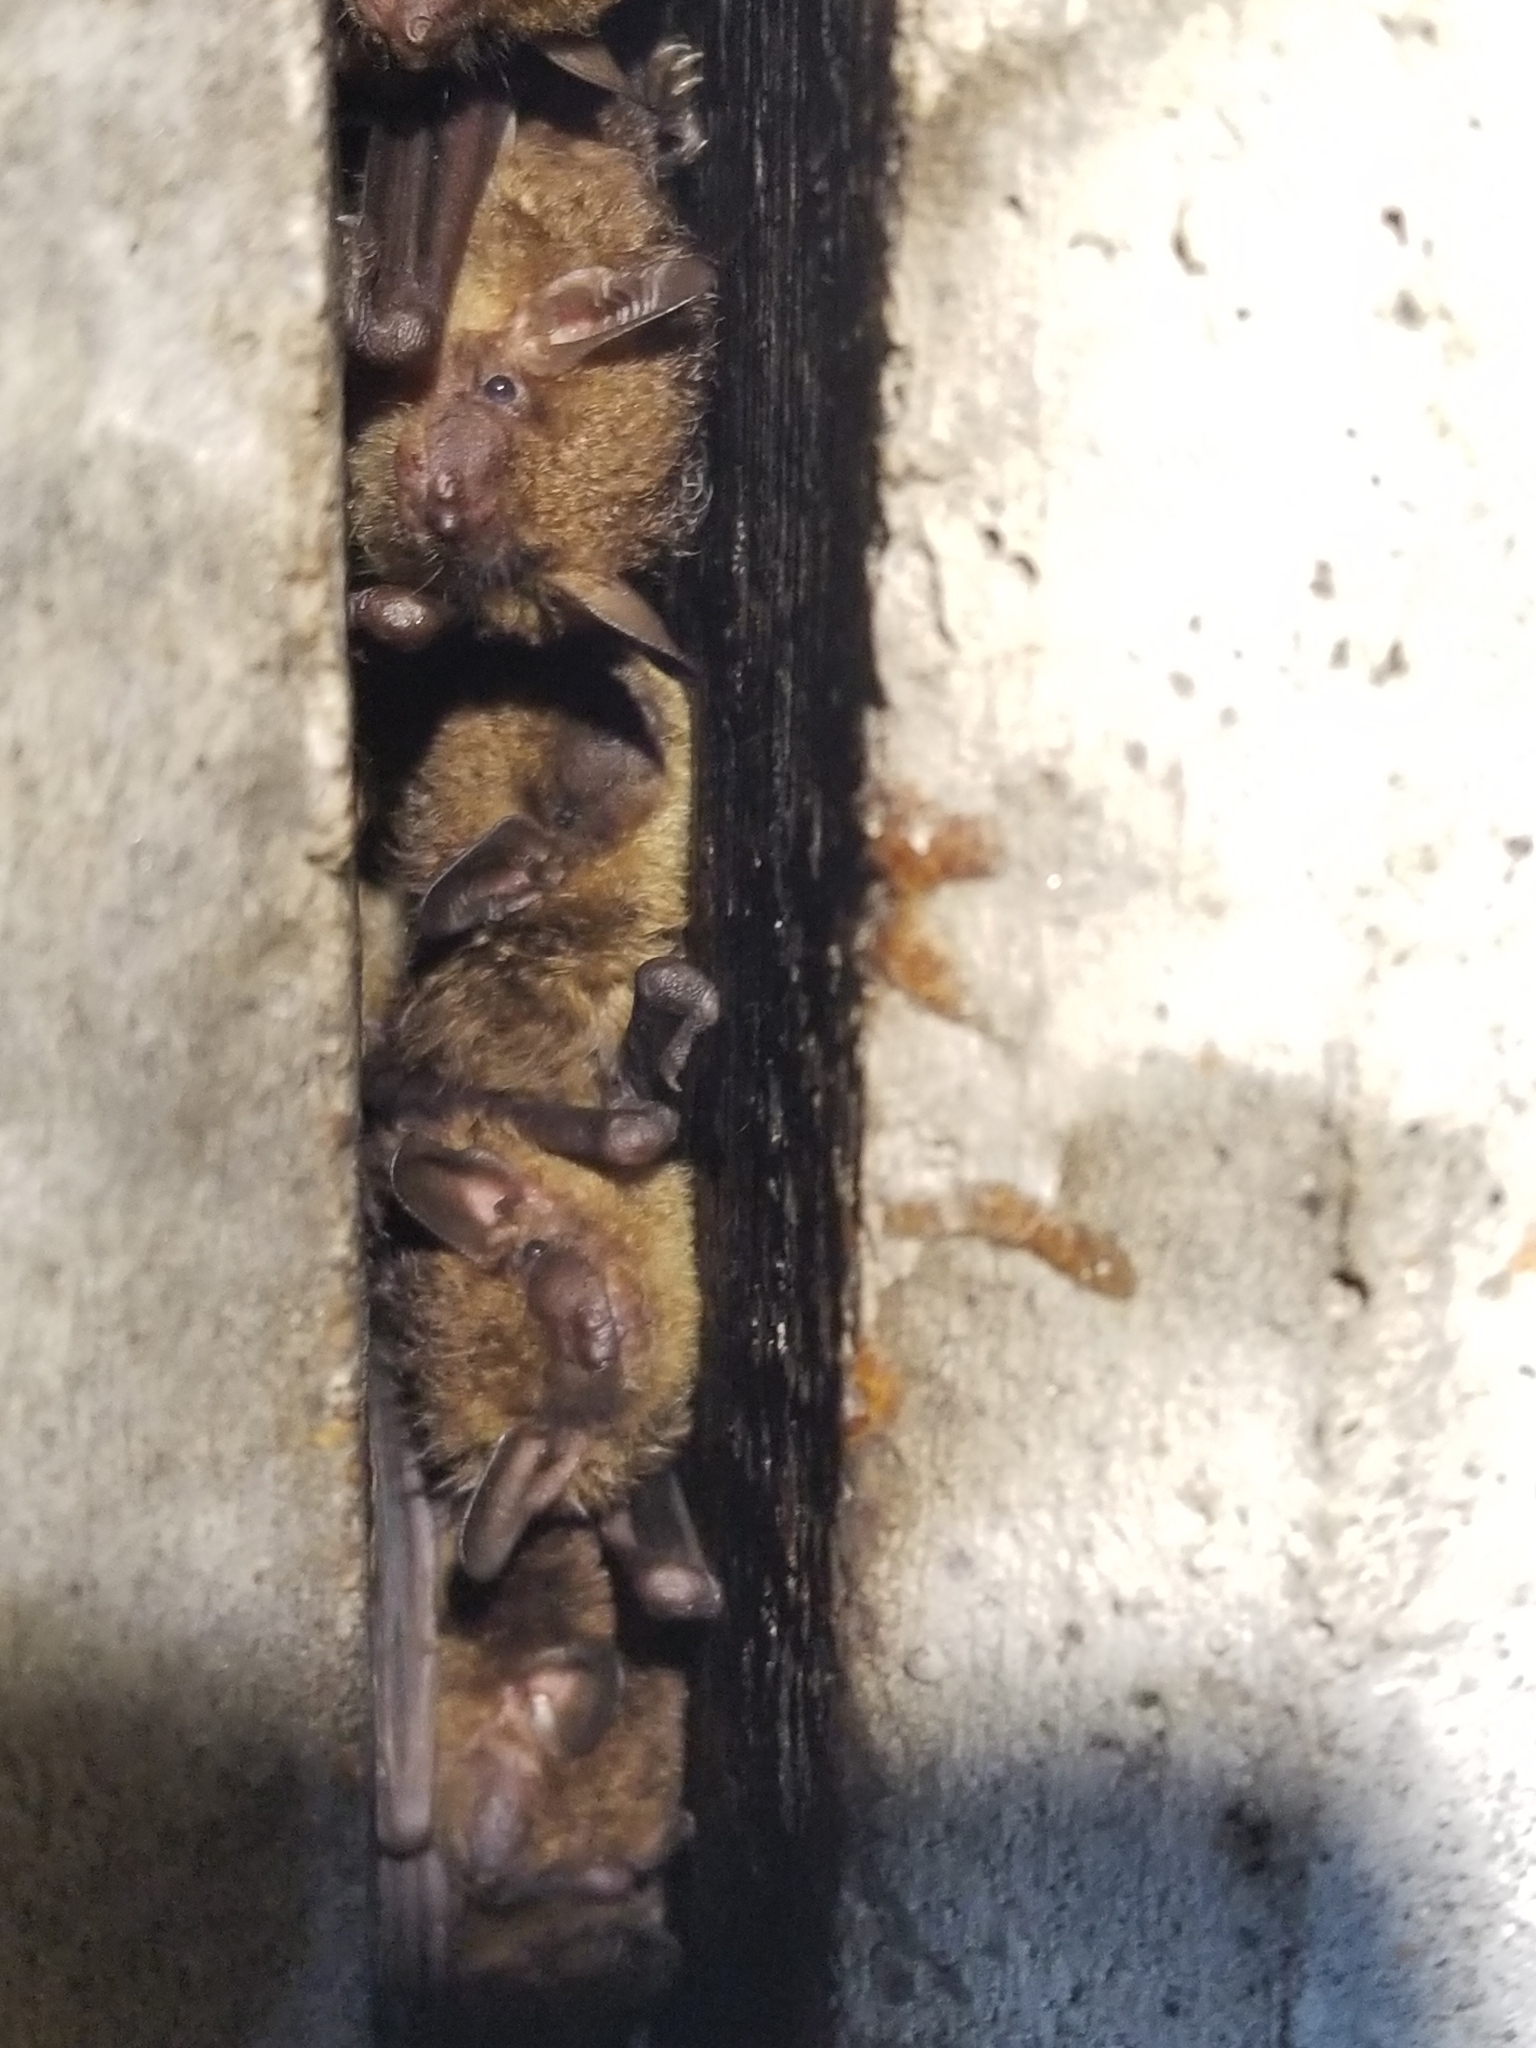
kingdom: Animalia
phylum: Chordata
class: Mammalia
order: Chiroptera
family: Vespertilionidae
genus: Eptesicus
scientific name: Eptesicus fuscus
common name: Big brown bat
